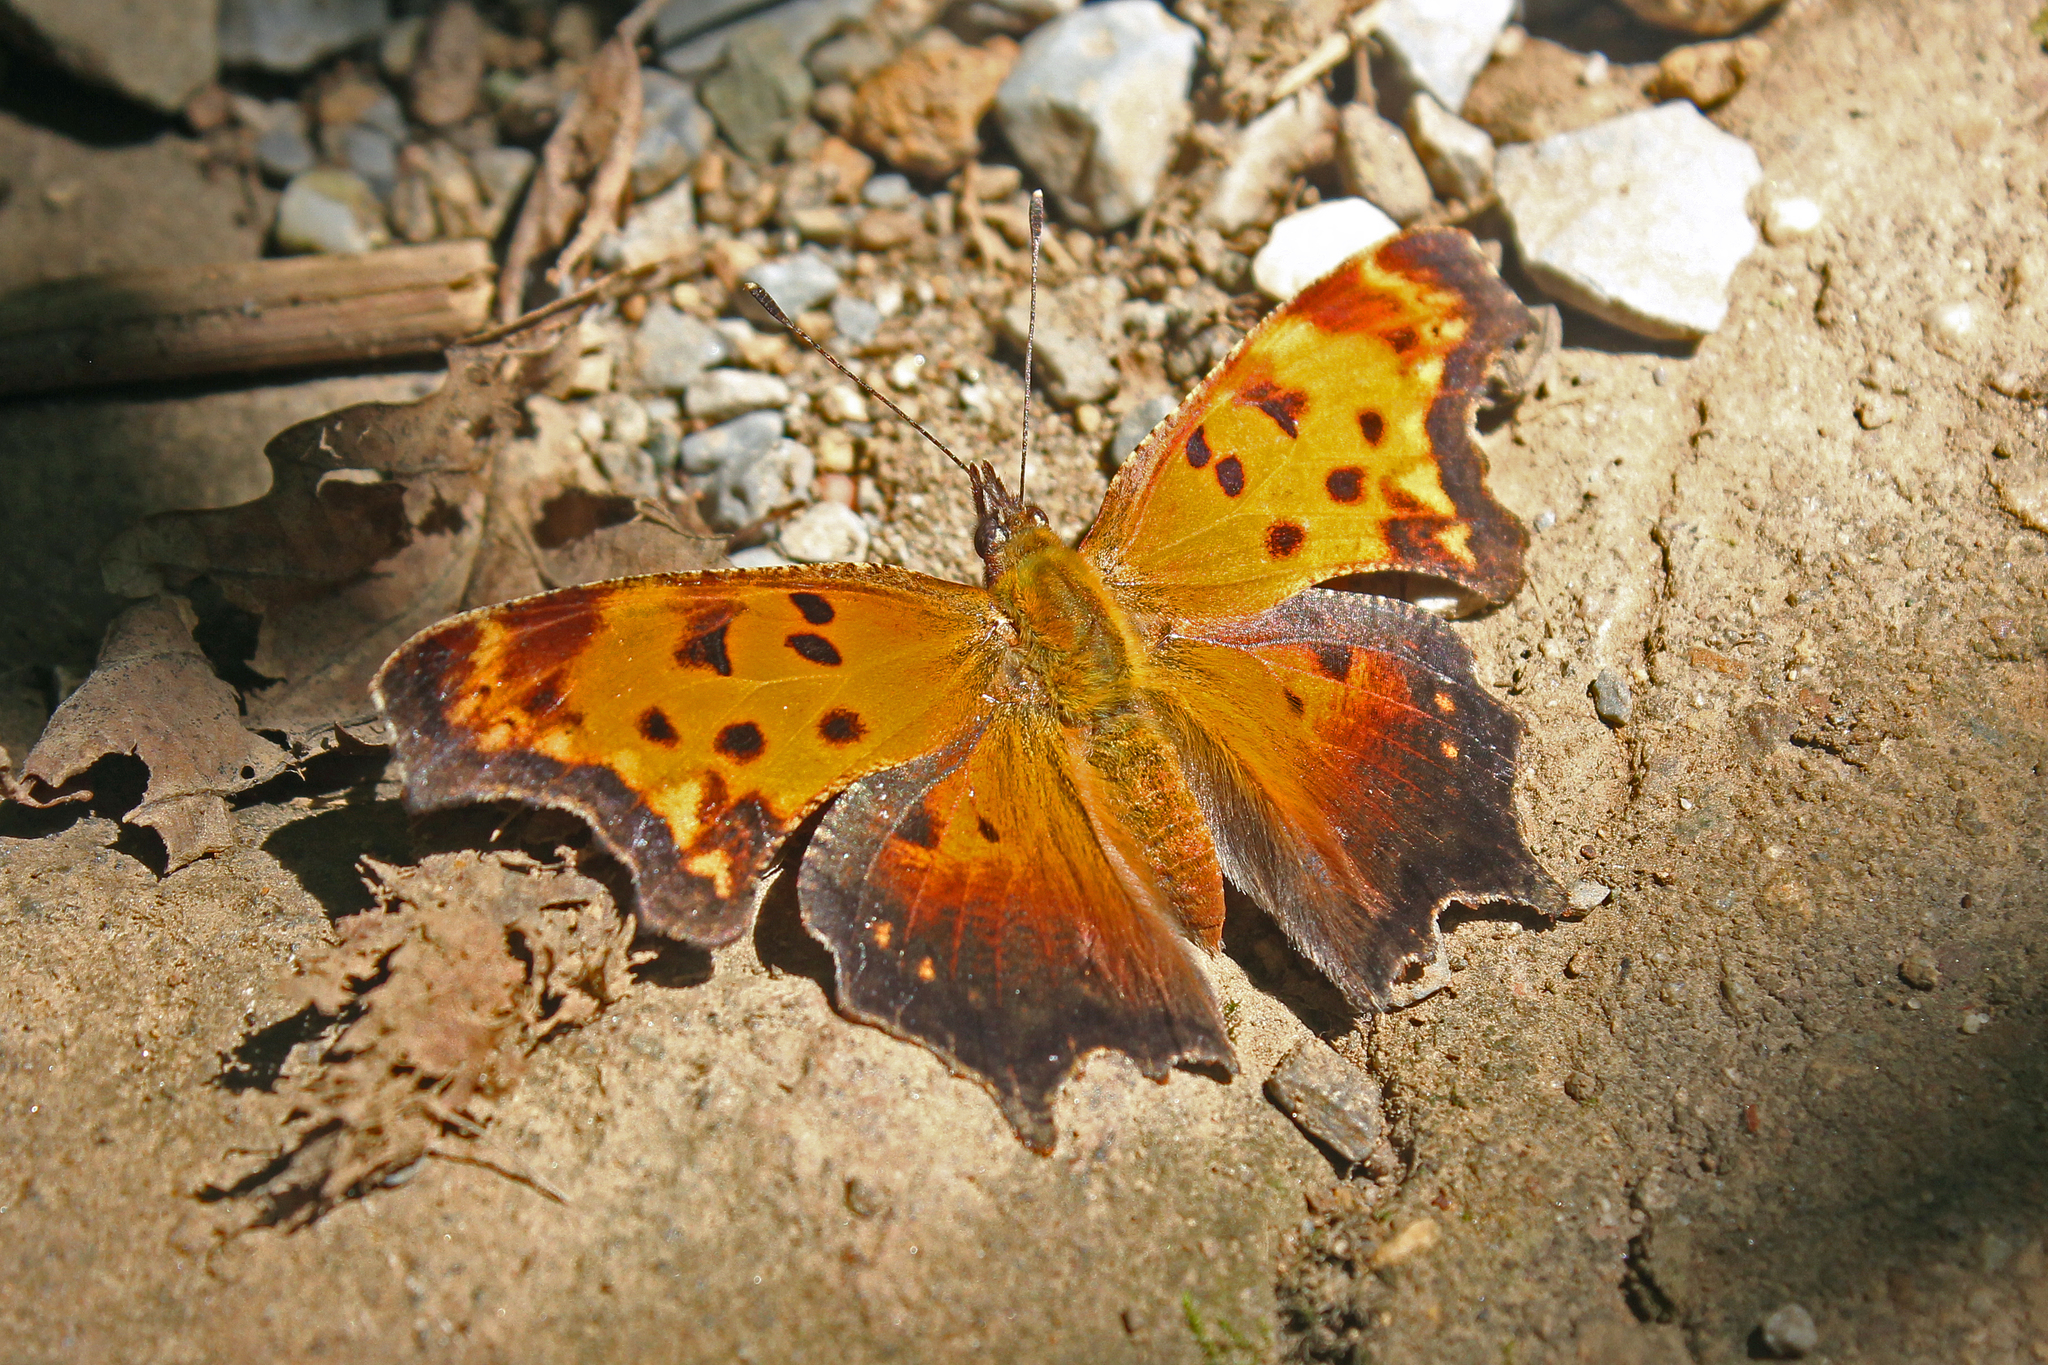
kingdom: Animalia
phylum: Arthropoda
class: Insecta
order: Lepidoptera
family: Nymphalidae
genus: Polygonia
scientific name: Polygonia progne
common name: Gray comma
